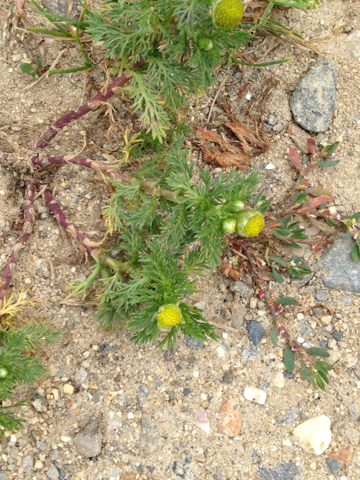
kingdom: Plantae
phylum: Tracheophyta
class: Magnoliopsida
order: Asterales
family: Asteraceae
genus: Matricaria
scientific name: Matricaria discoidea
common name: Disc mayweed
